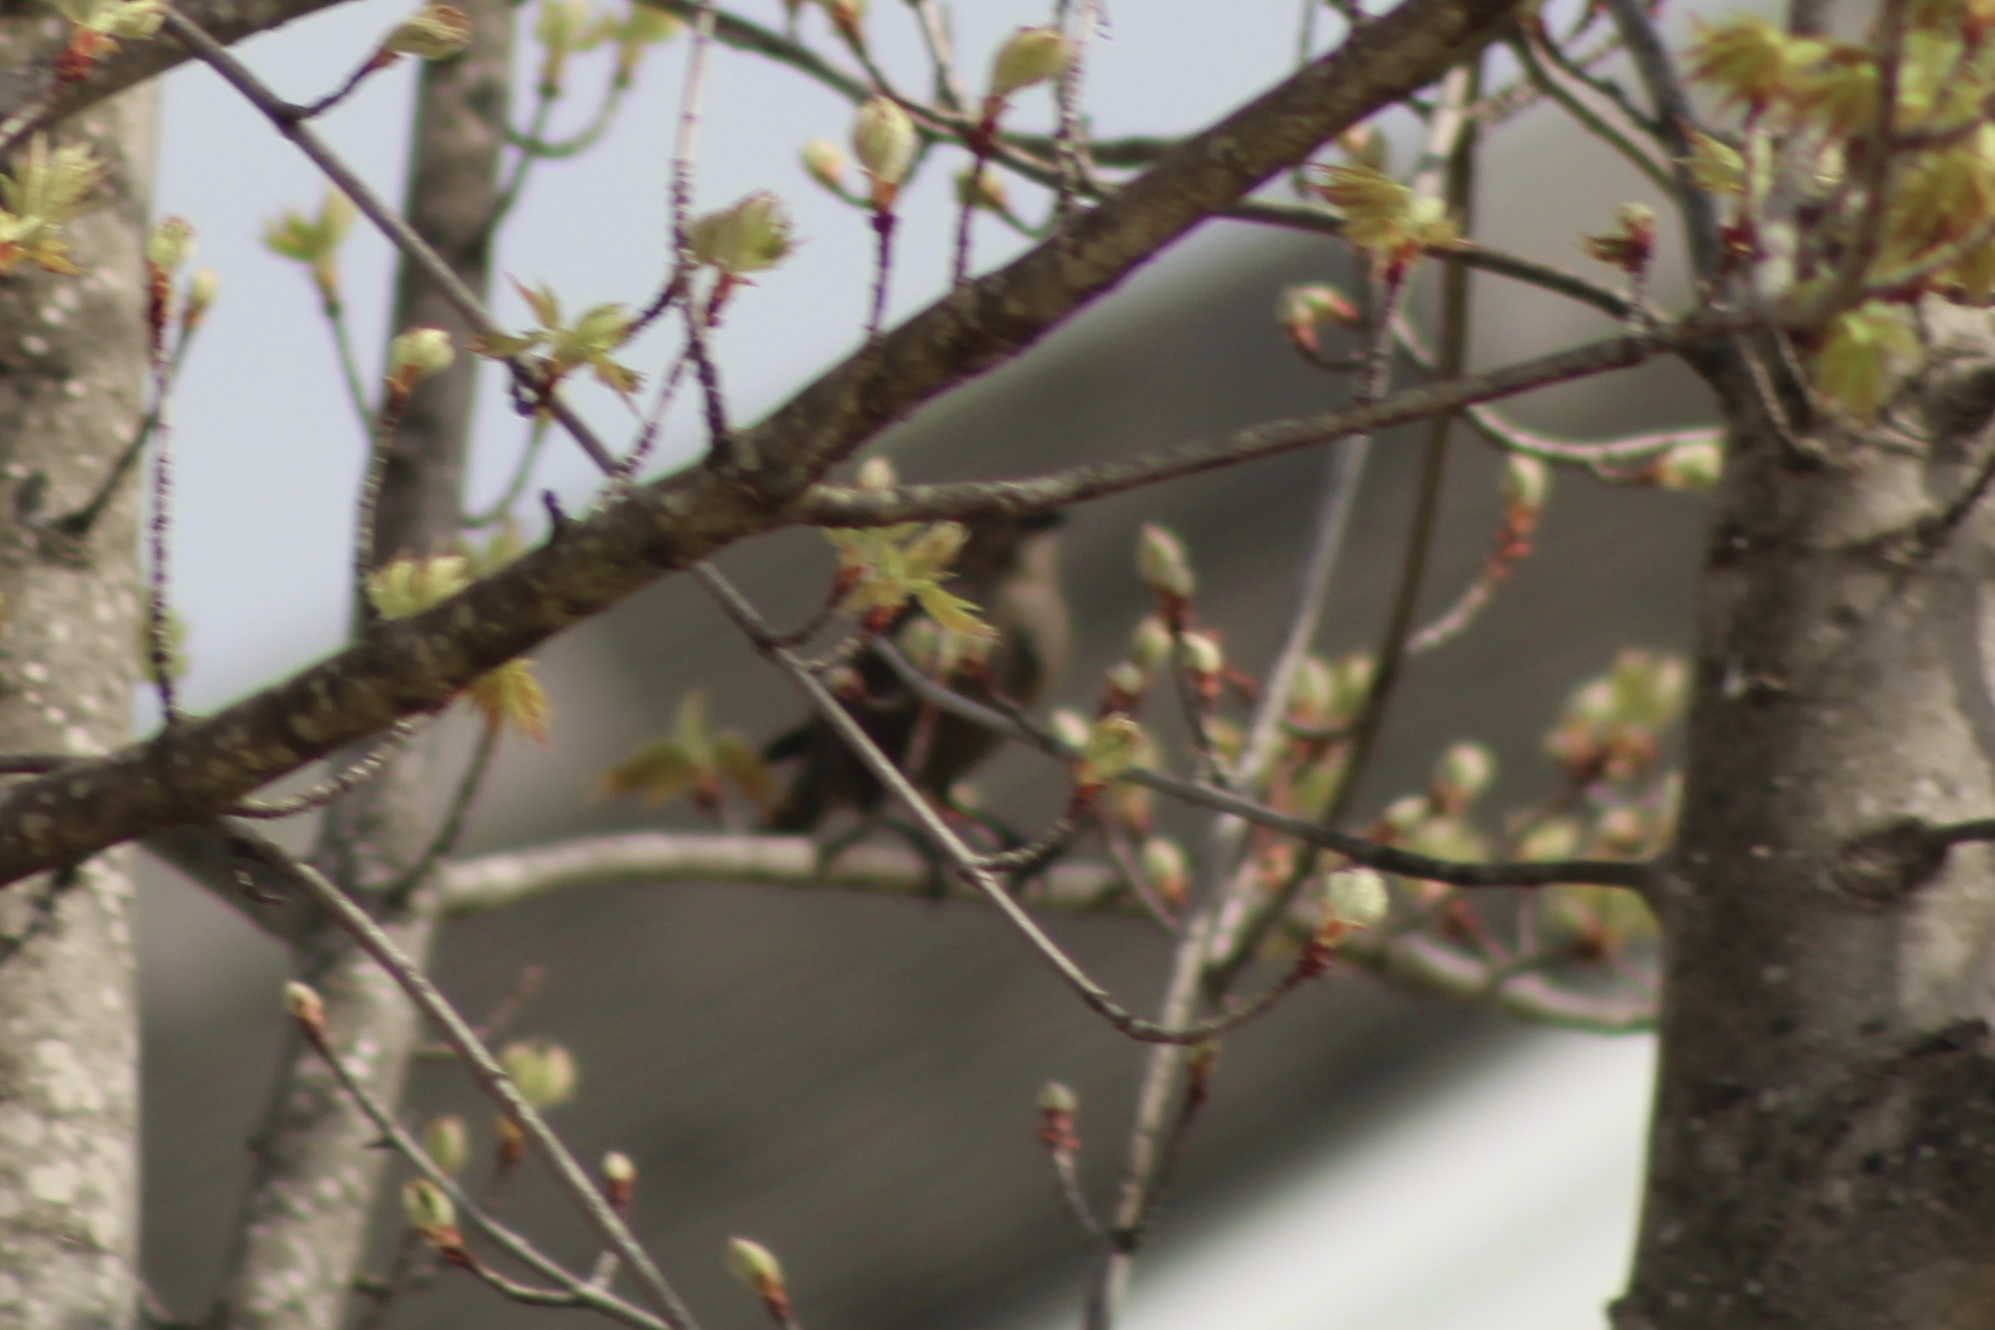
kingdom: Animalia
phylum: Chordata
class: Aves
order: Passeriformes
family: Icteridae
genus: Molothrus
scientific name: Molothrus ater
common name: Brown-headed cowbird
